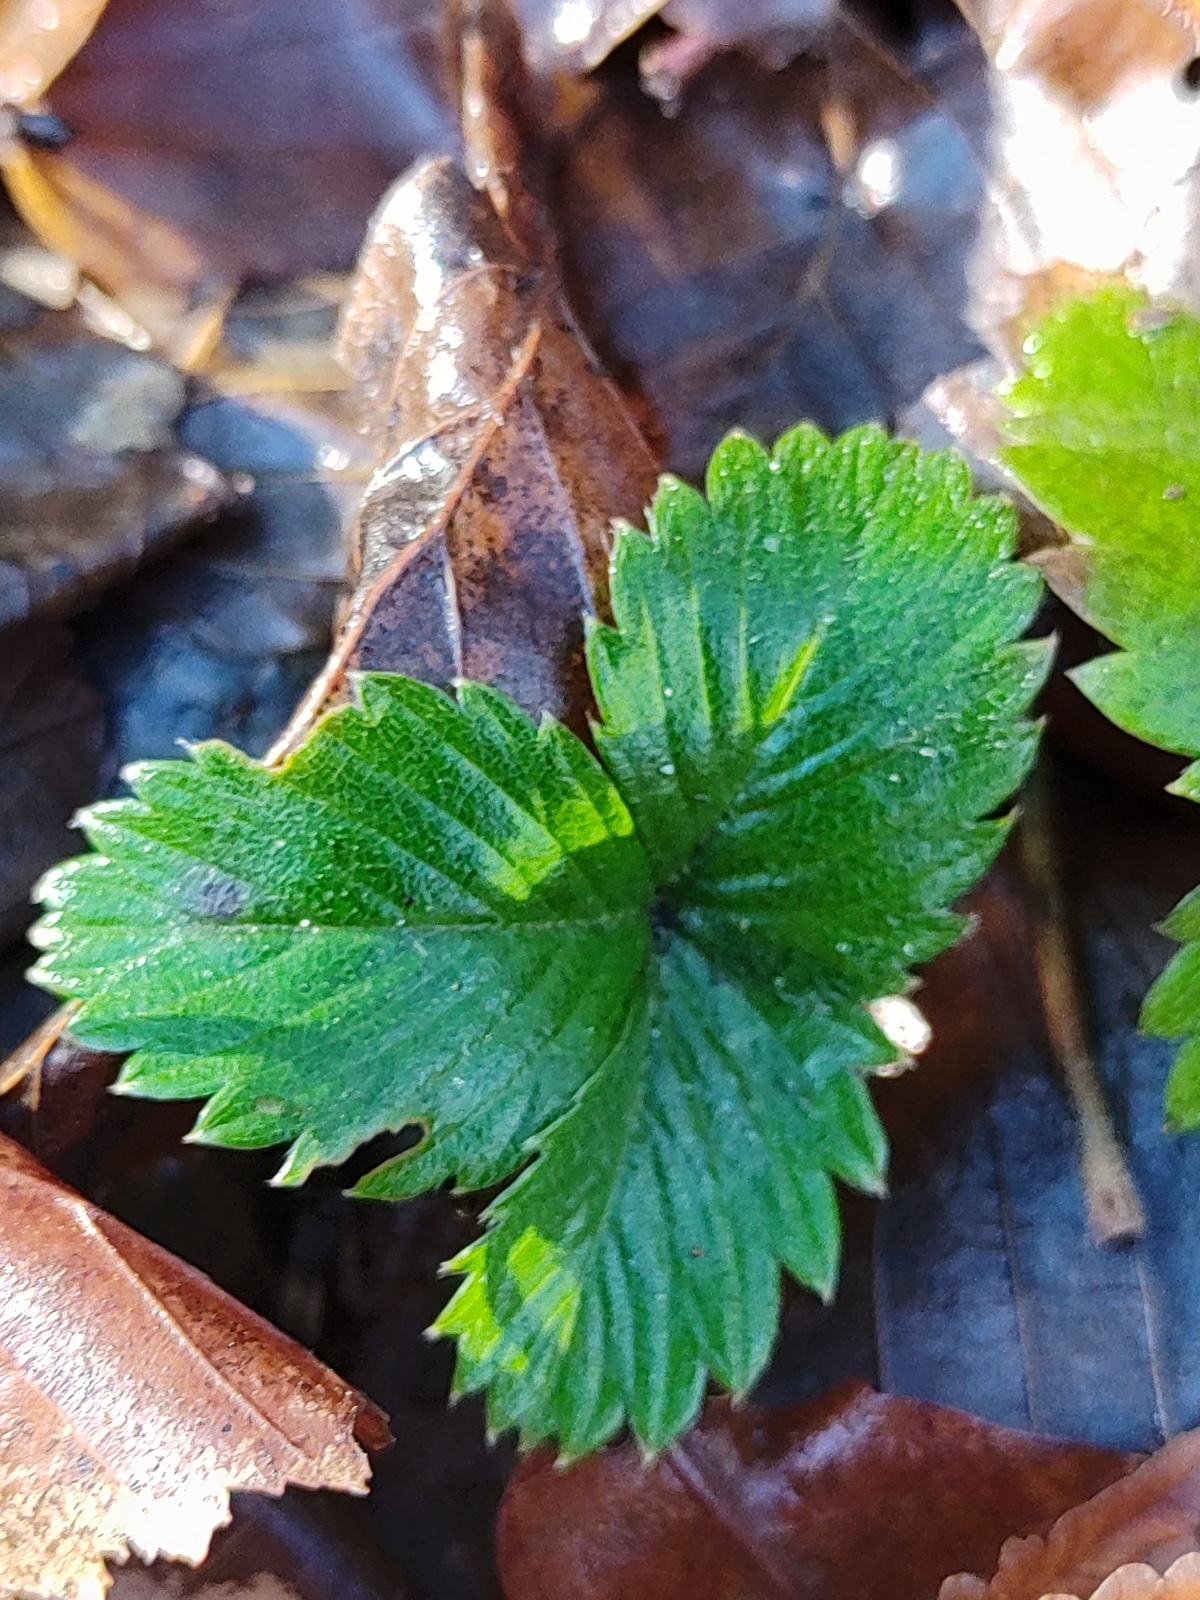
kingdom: Plantae
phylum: Tracheophyta
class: Magnoliopsida
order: Rosales
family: Rosaceae
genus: Fragaria
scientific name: Fragaria vesca
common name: Wild strawberry
